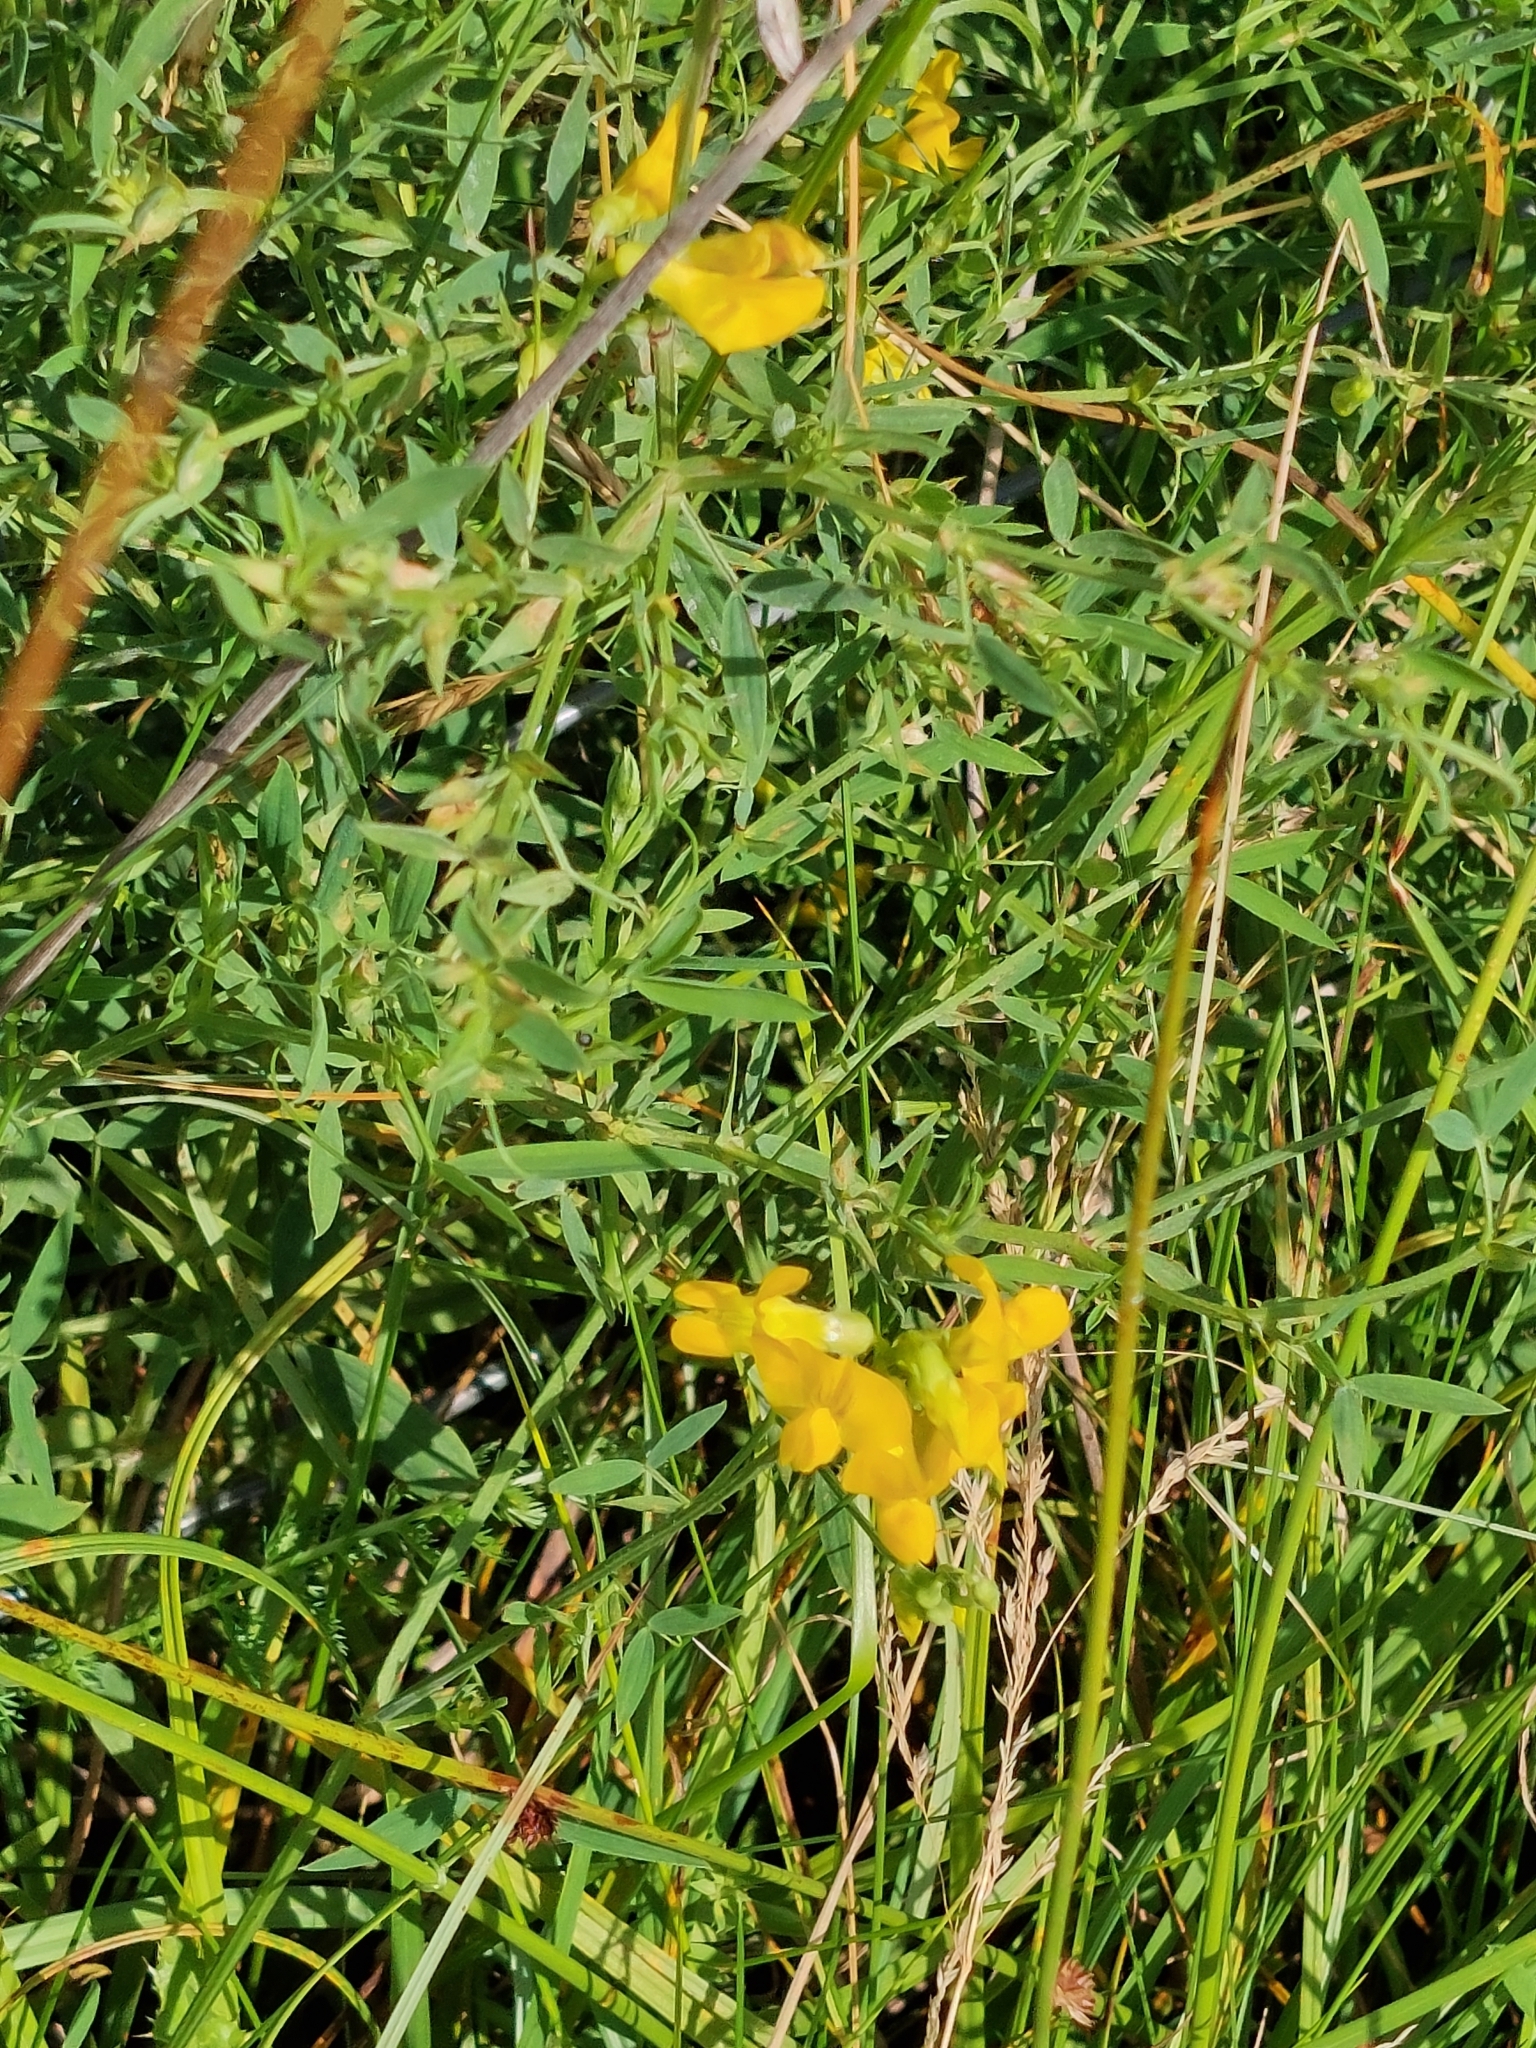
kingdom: Plantae
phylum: Tracheophyta
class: Magnoliopsida
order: Fabales
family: Fabaceae
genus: Lathyrus
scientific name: Lathyrus pratensis
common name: Meadow vetchling
